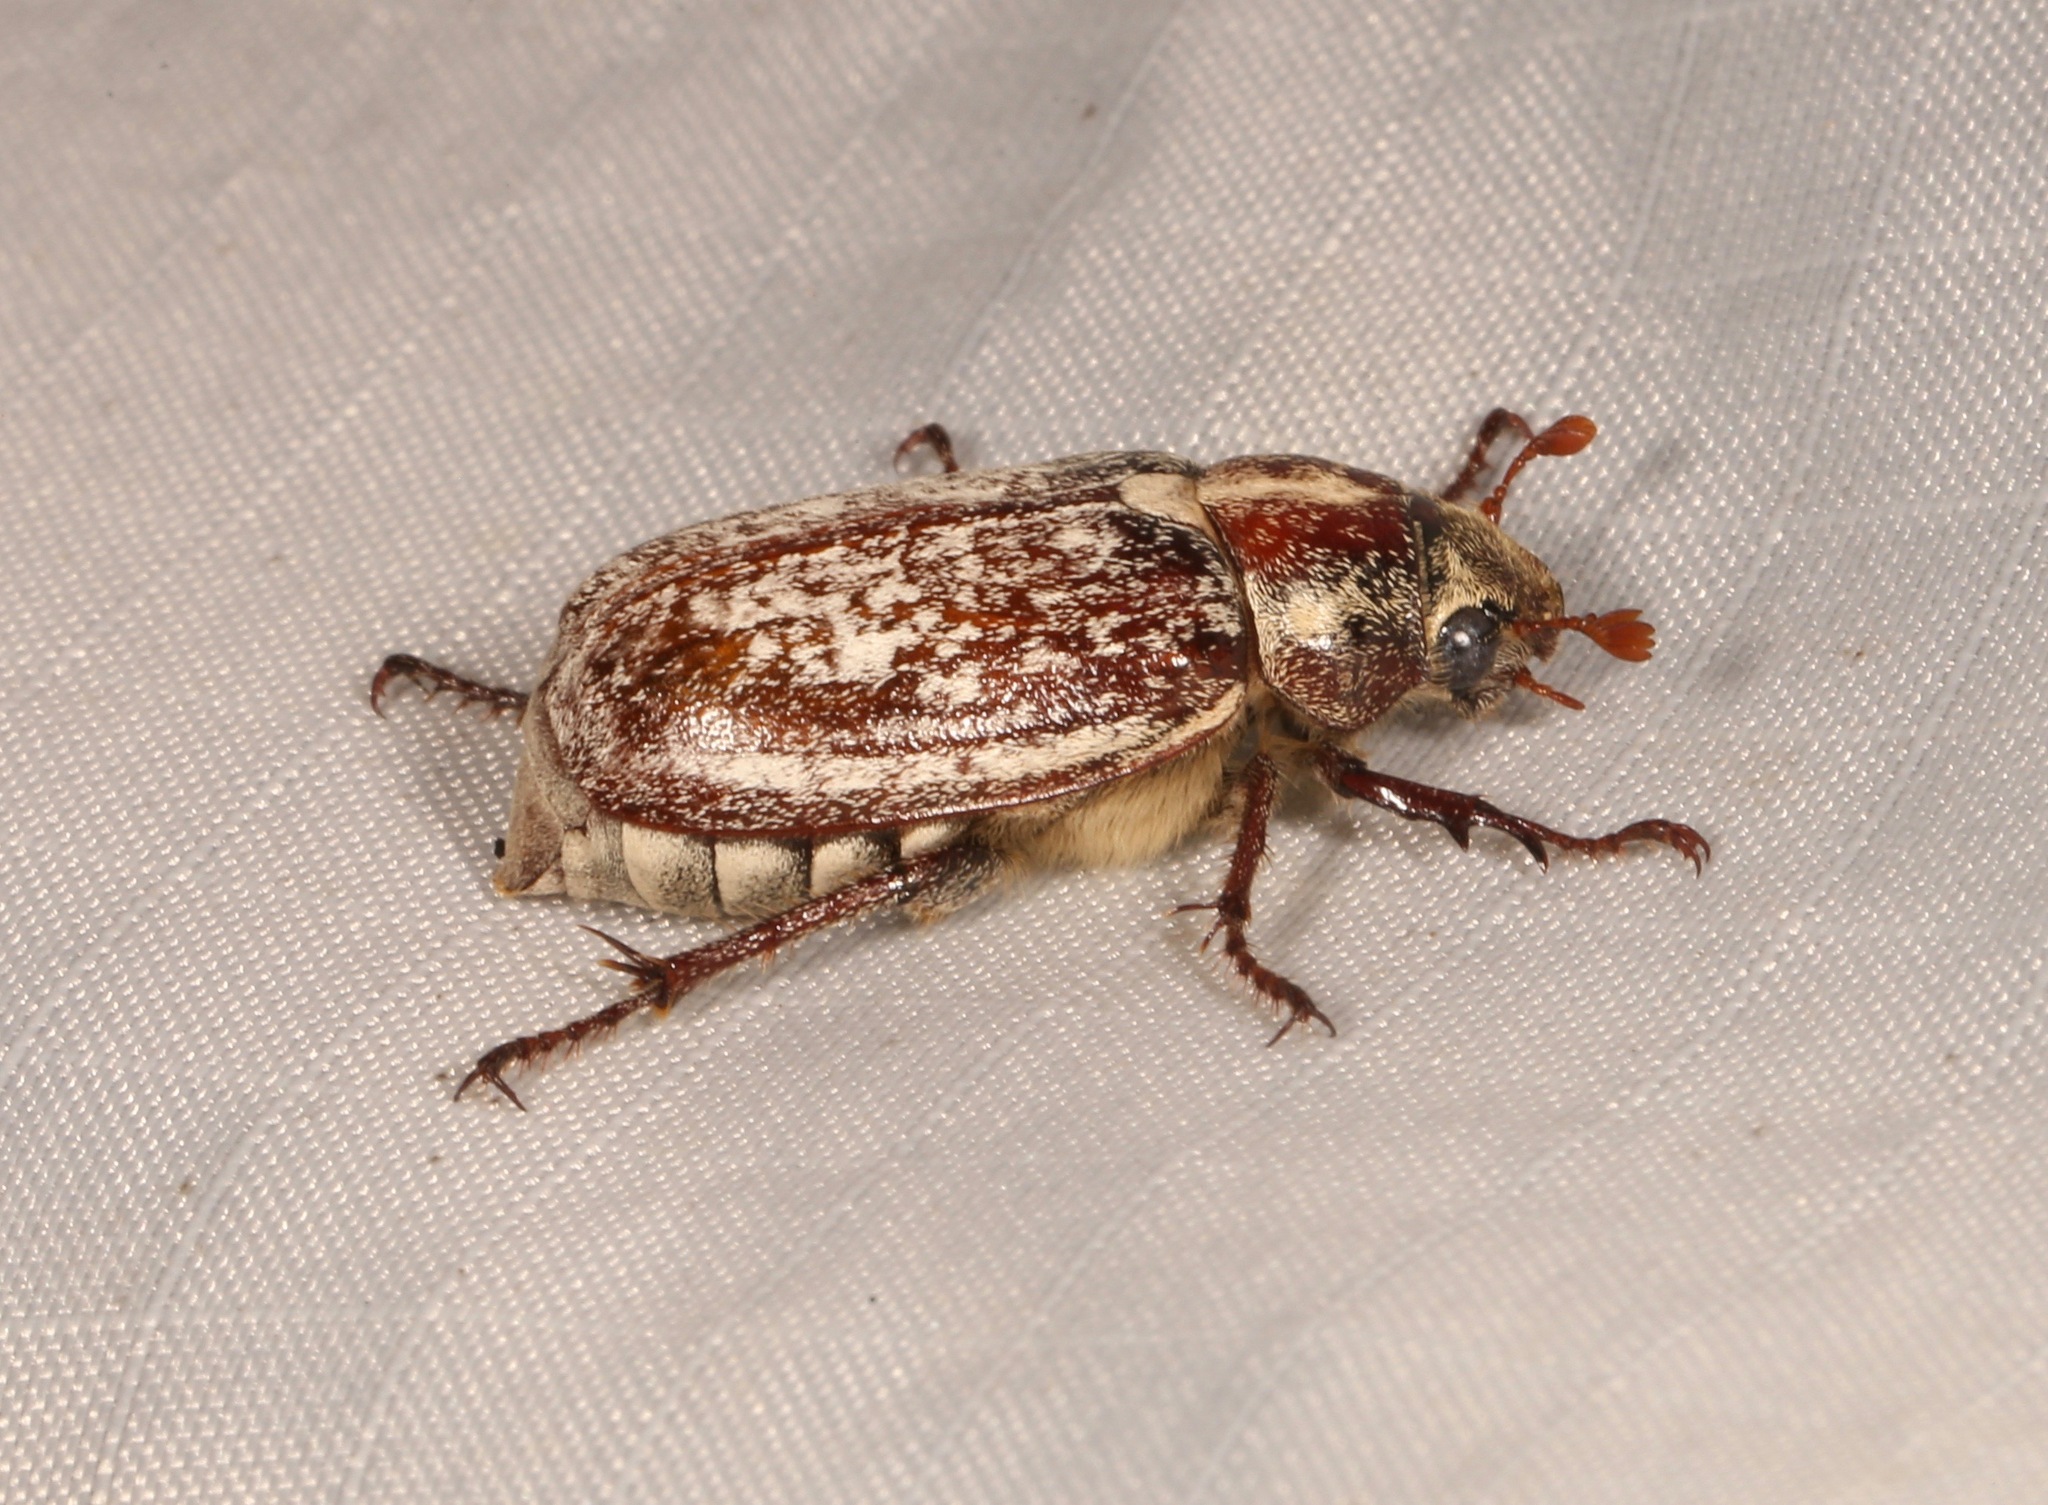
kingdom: Animalia
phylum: Arthropoda
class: Insecta
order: Coleoptera
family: Scarabaeidae
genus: Polyphylla
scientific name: Polyphylla gracilis
